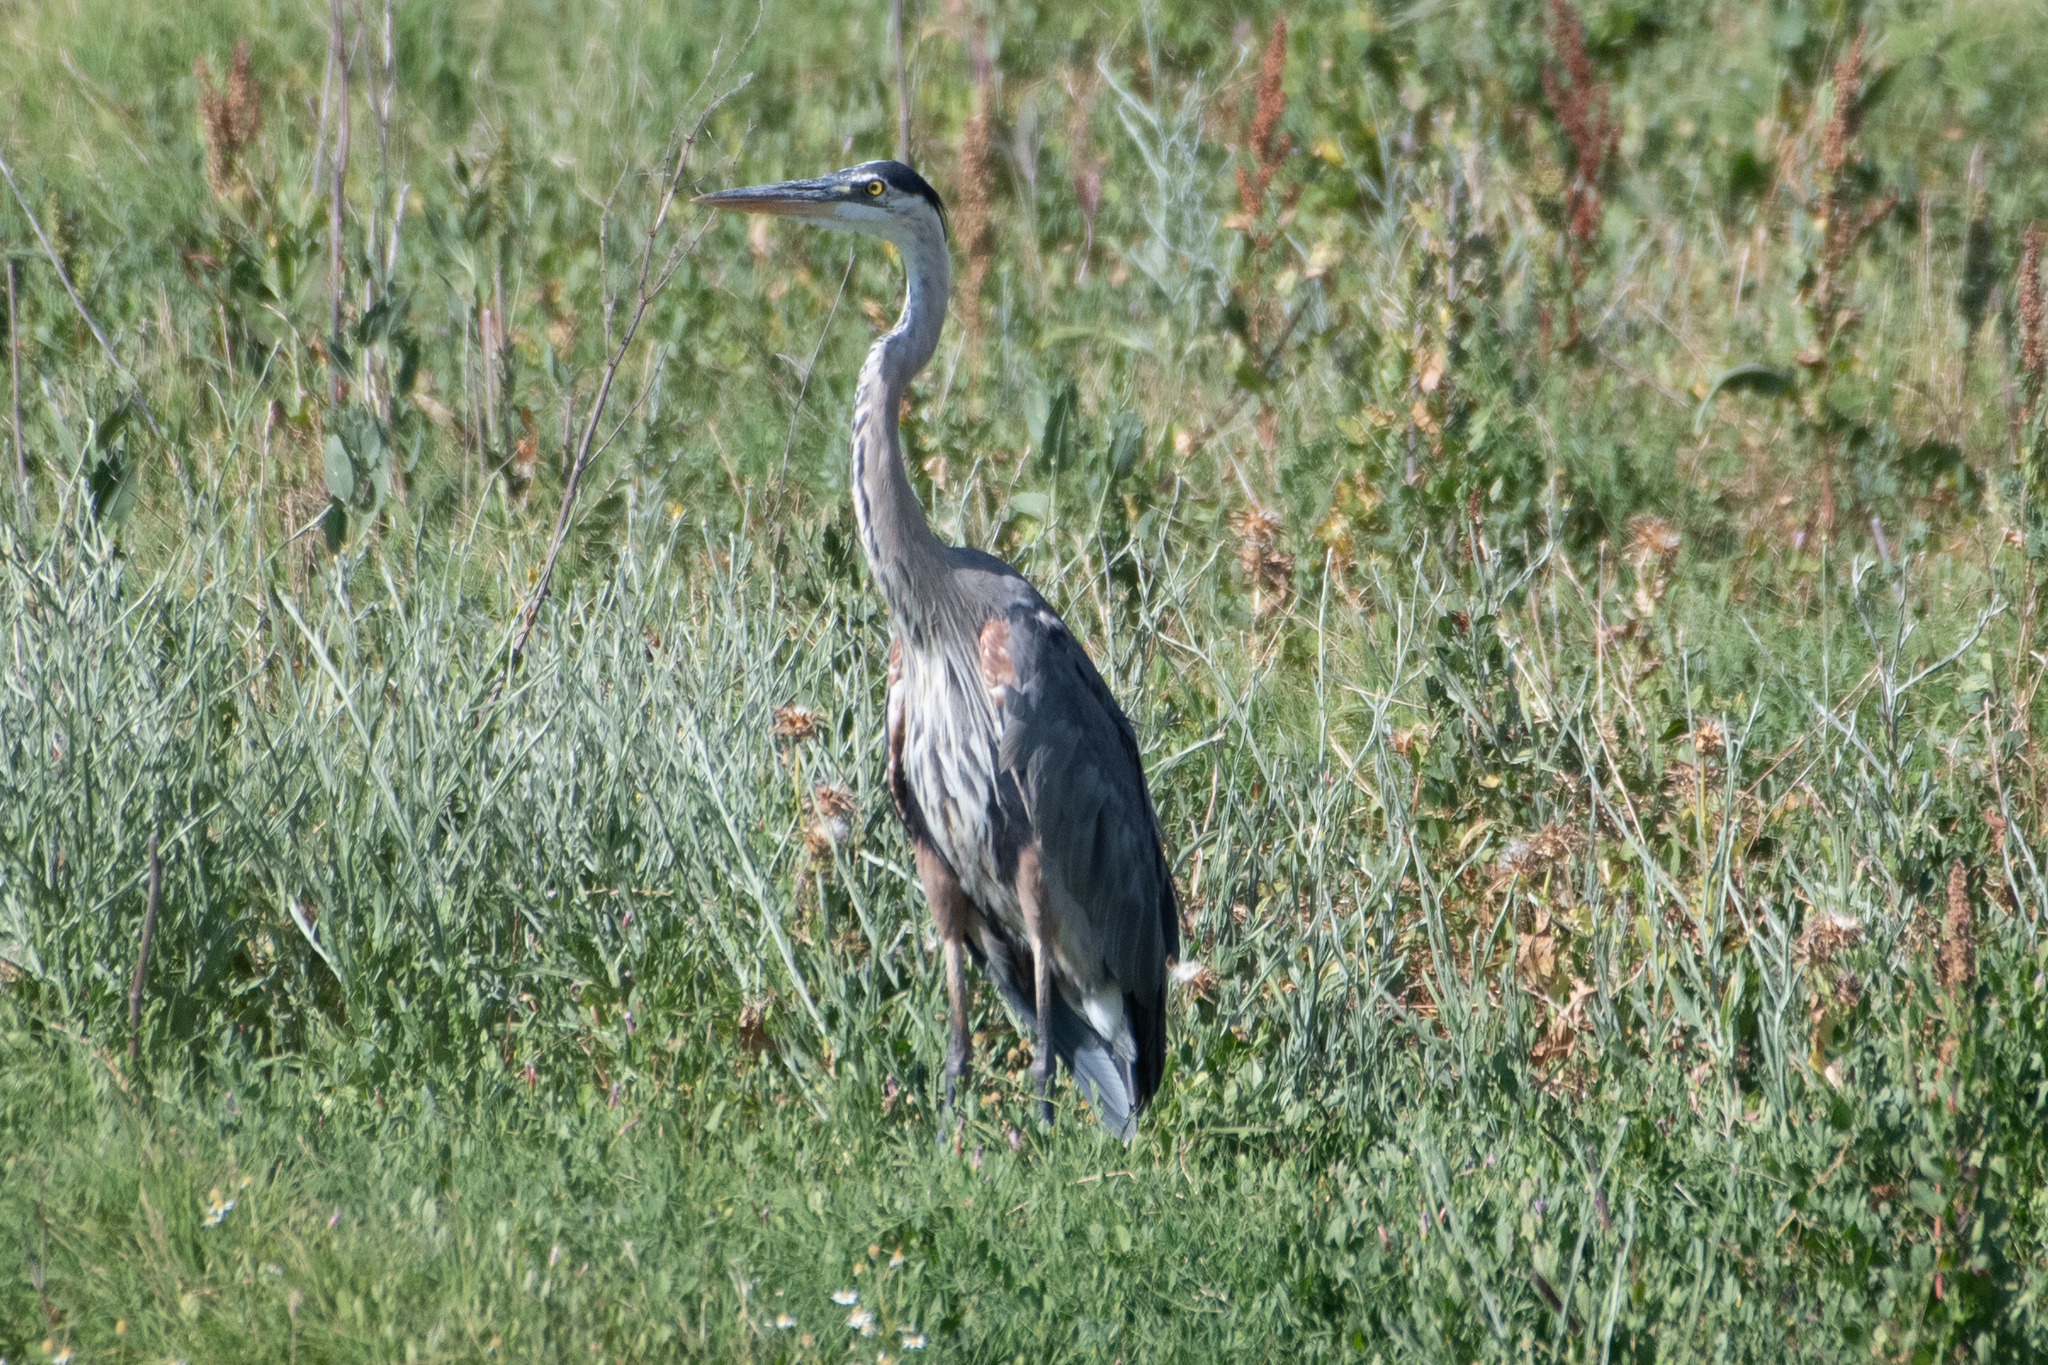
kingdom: Animalia
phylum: Chordata
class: Aves
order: Pelecaniformes
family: Ardeidae
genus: Ardea
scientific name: Ardea herodias
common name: Great blue heron
